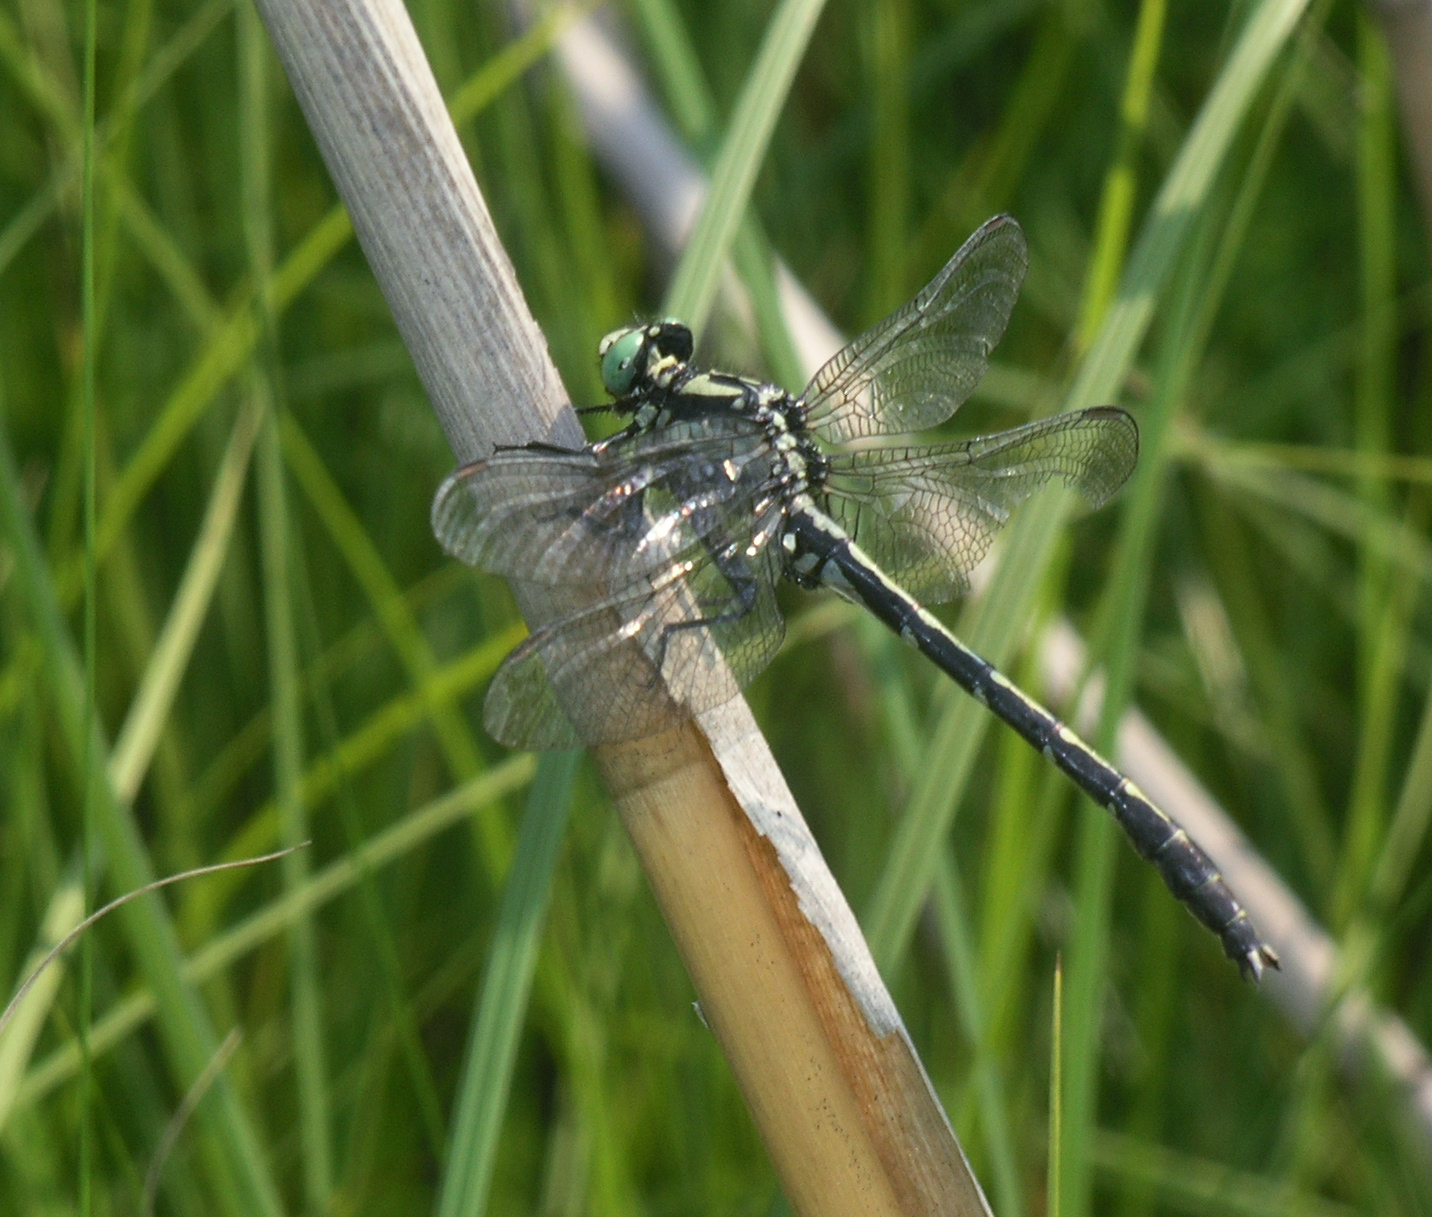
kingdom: Animalia
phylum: Arthropoda
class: Insecta
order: Odonata
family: Gomphidae
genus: Trigomphus
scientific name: Trigomphus nigripes
